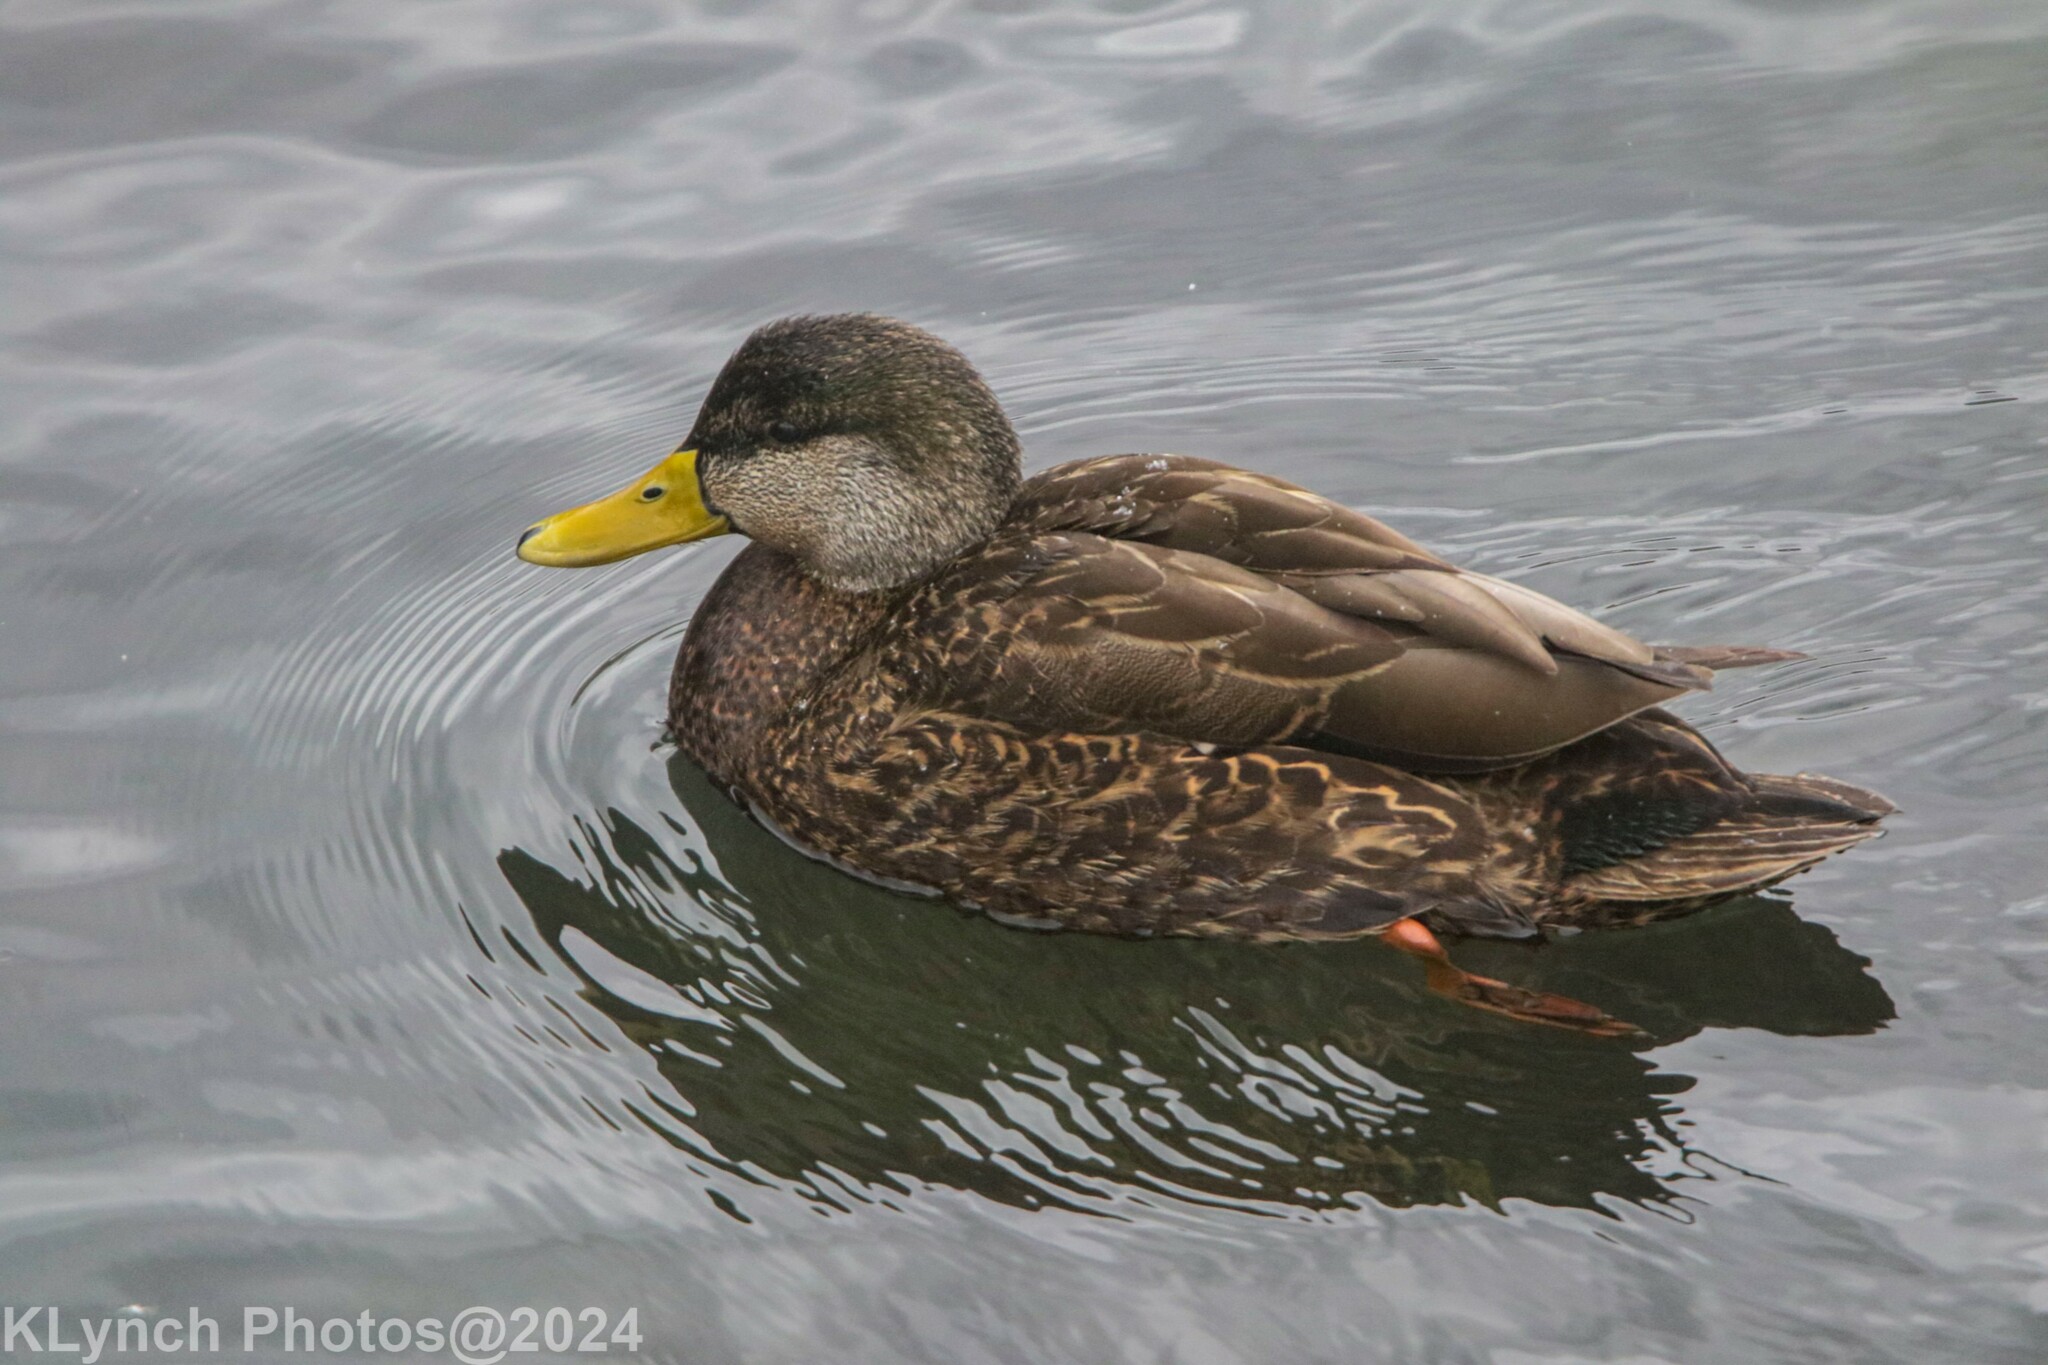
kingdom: Animalia
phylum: Chordata
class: Aves
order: Anseriformes
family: Anatidae
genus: Anas
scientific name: Anas rubripes
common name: American black duck
